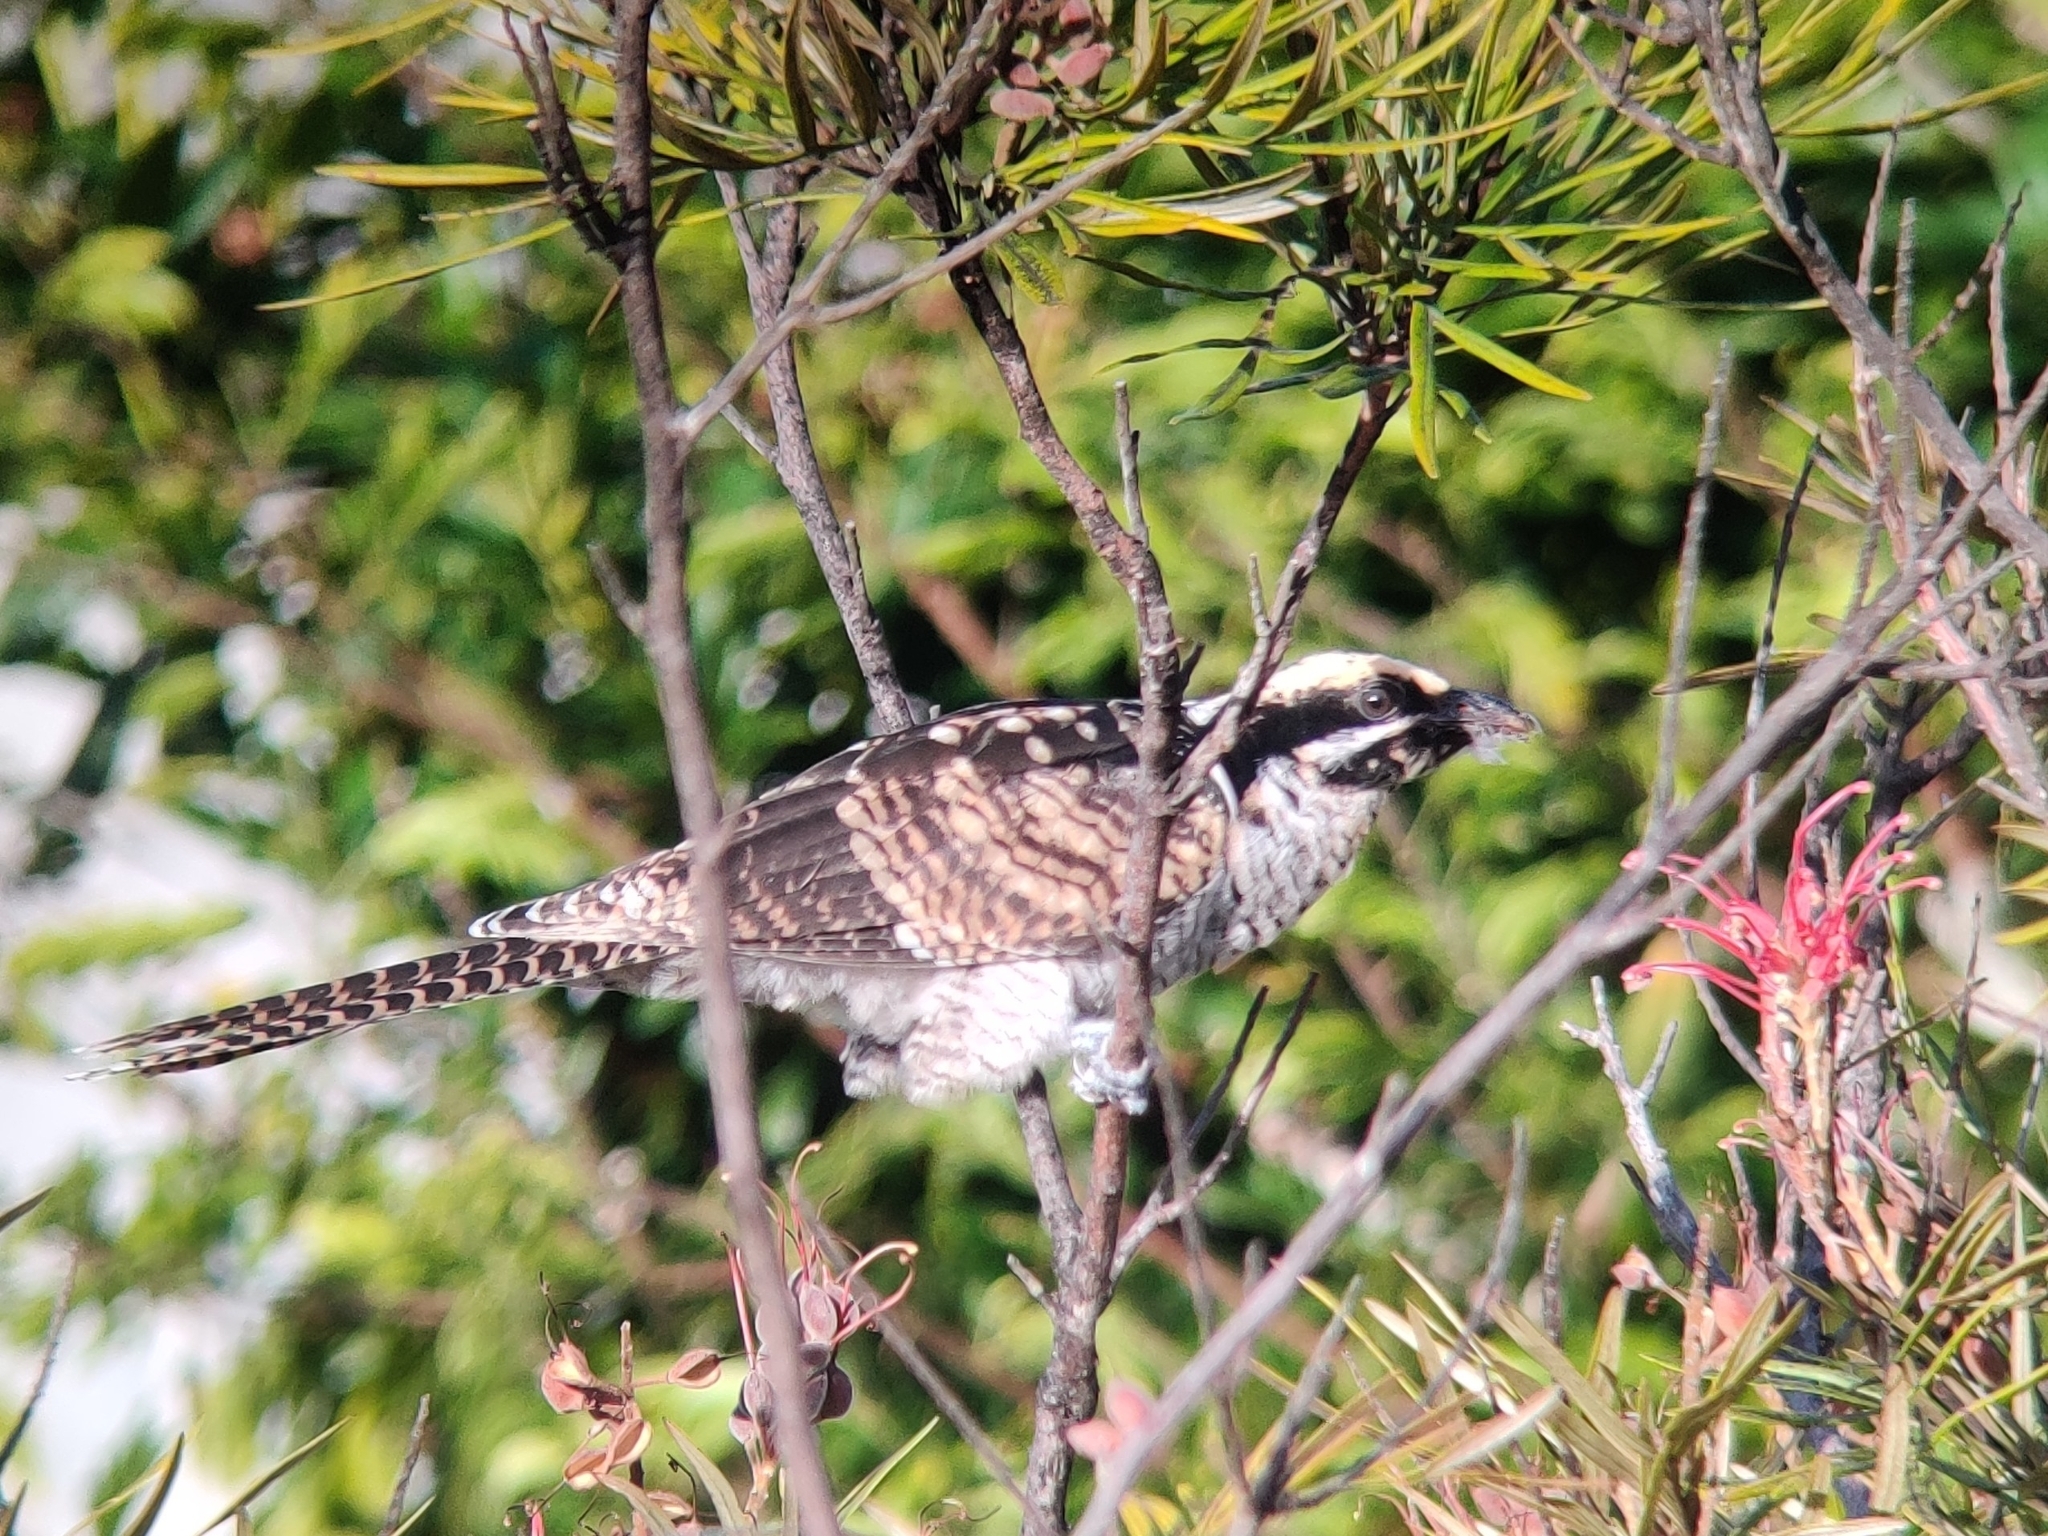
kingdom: Animalia
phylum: Chordata
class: Aves
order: Cuculiformes
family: Cuculidae
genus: Eudynamys
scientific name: Eudynamys orientalis
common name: Pacific koel
